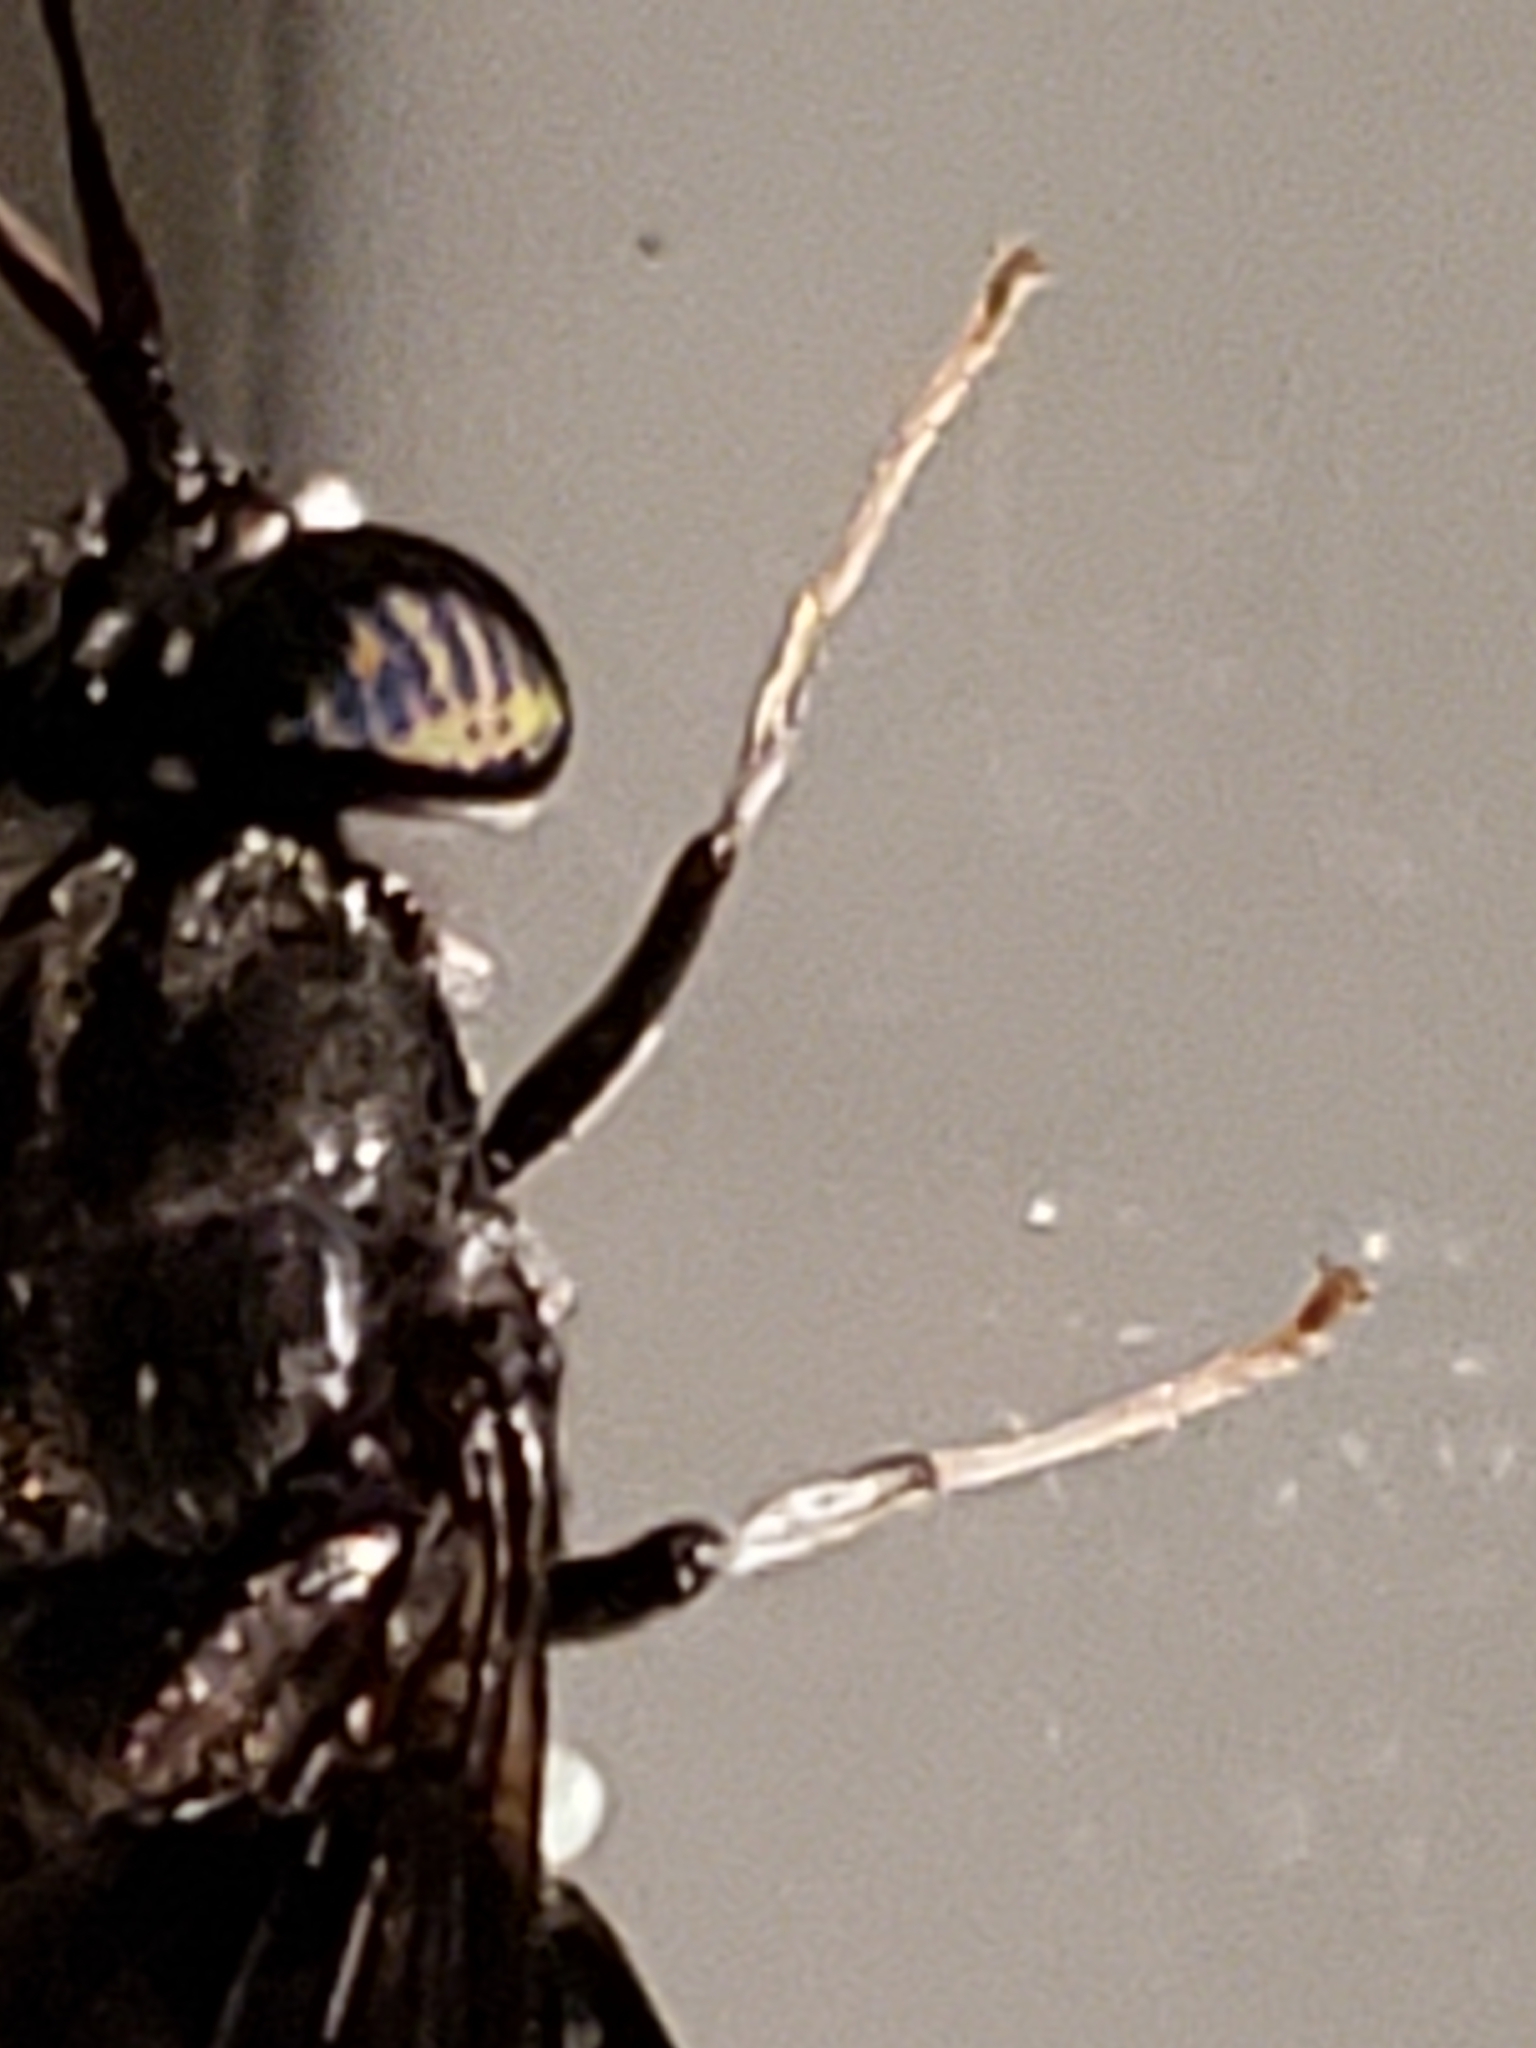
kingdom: Animalia
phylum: Arthropoda
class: Insecta
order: Diptera
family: Stratiomyidae
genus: Hermetia
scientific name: Hermetia illucens
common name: Black soldier fly
